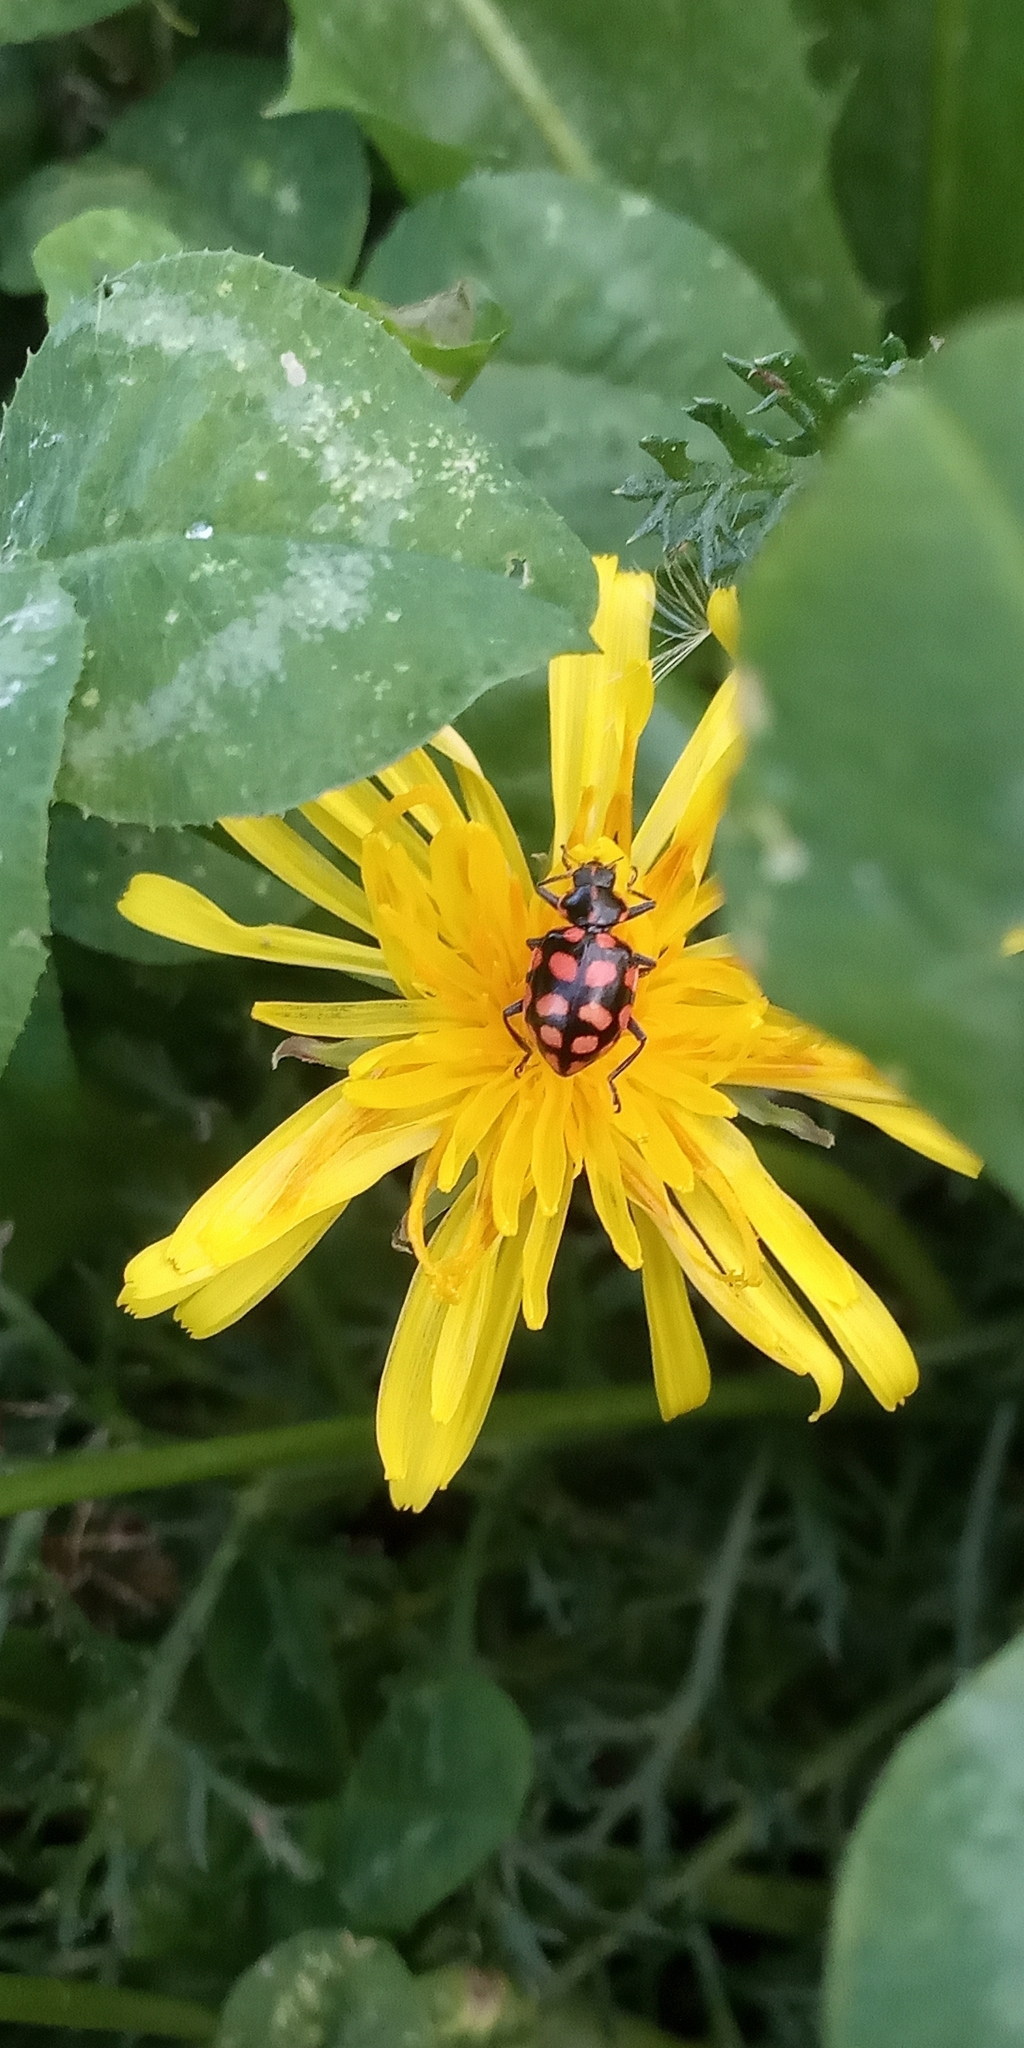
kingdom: Animalia
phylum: Arthropoda
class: Insecta
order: Coleoptera
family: Coccinellidae
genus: Coleomegilla
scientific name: Coleomegilla
